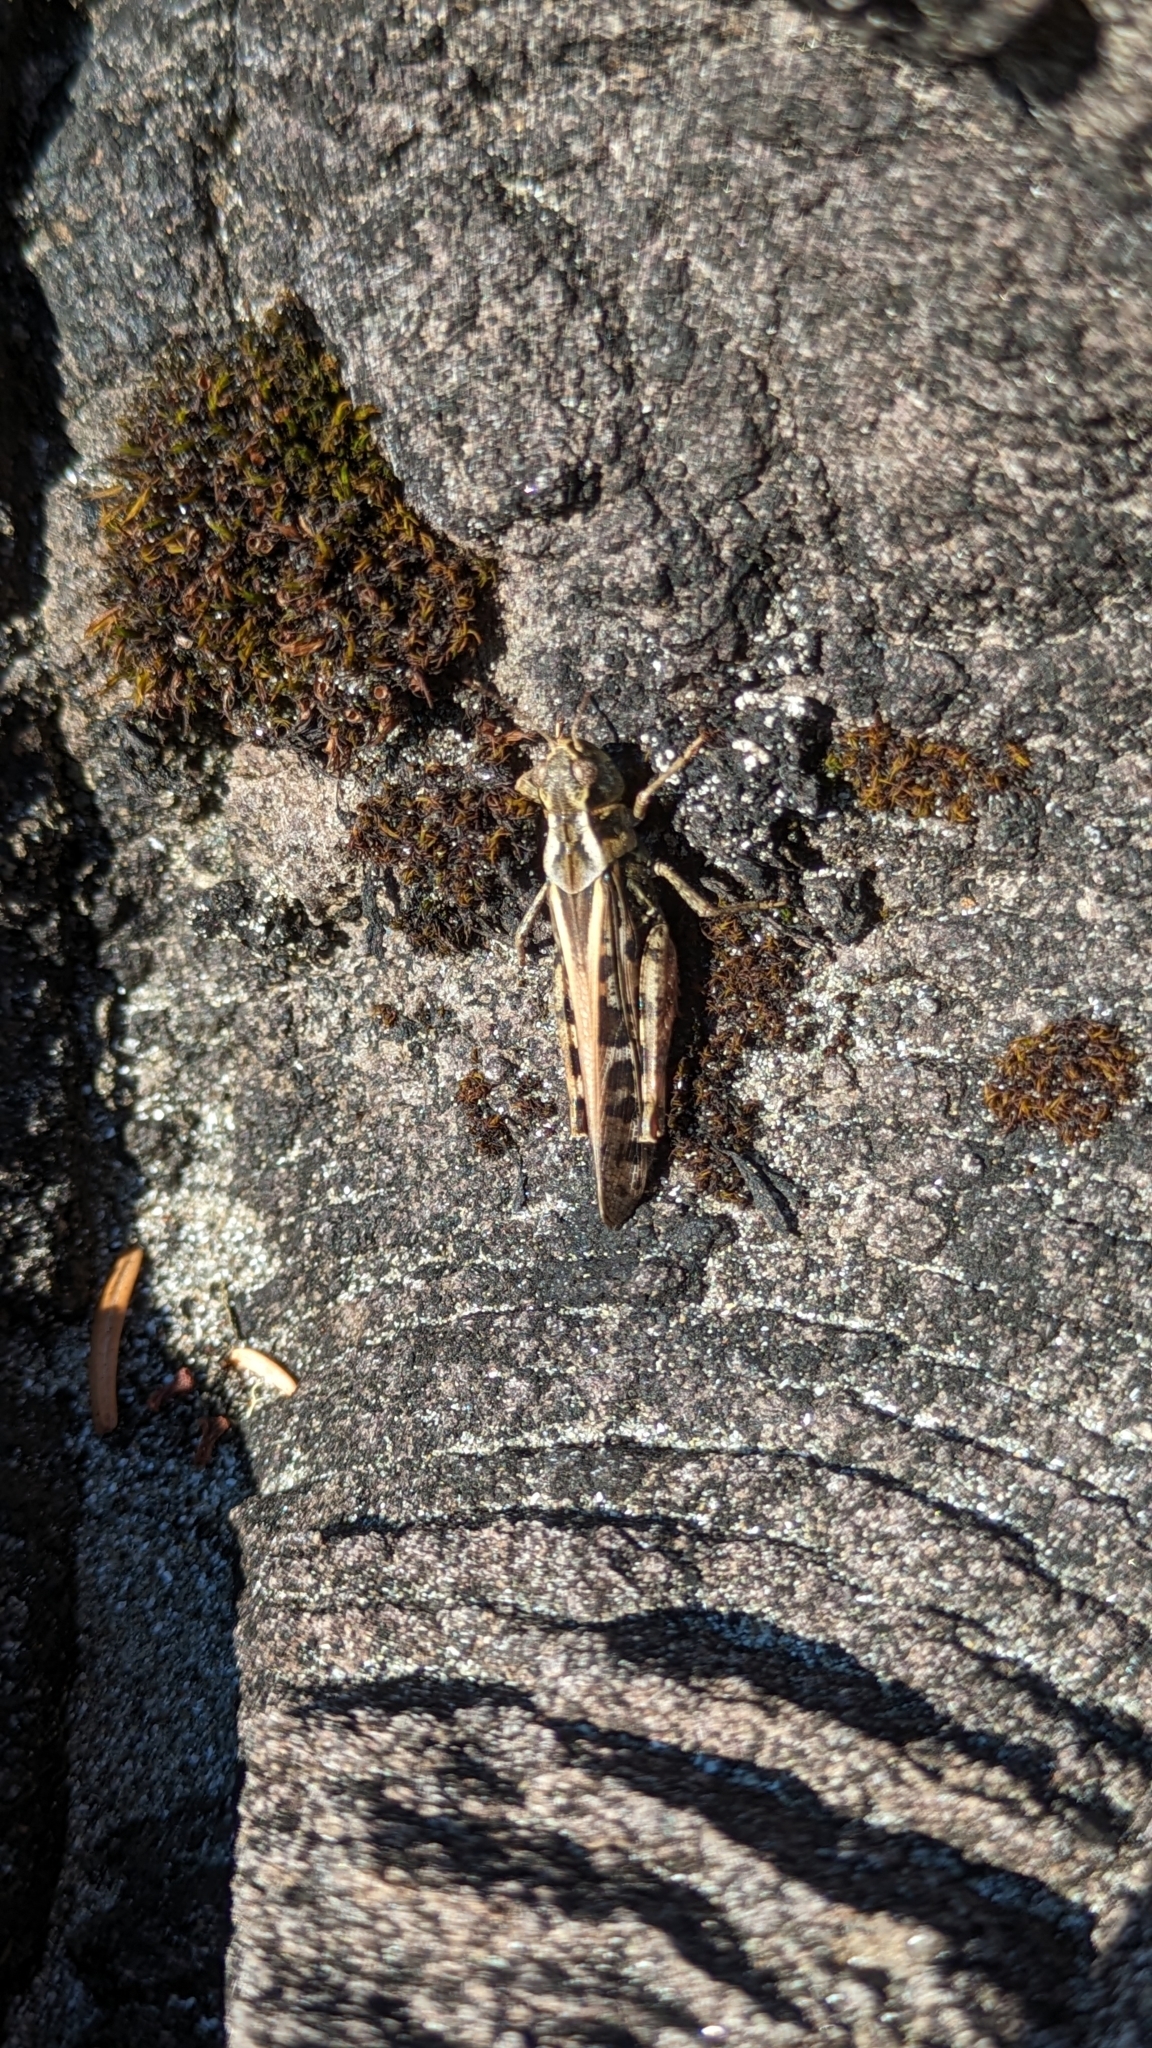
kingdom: Animalia
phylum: Arthropoda
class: Insecta
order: Orthoptera
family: Acrididae
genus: Camnula
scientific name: Camnula pellucida
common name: Clear-winged grasshopper
